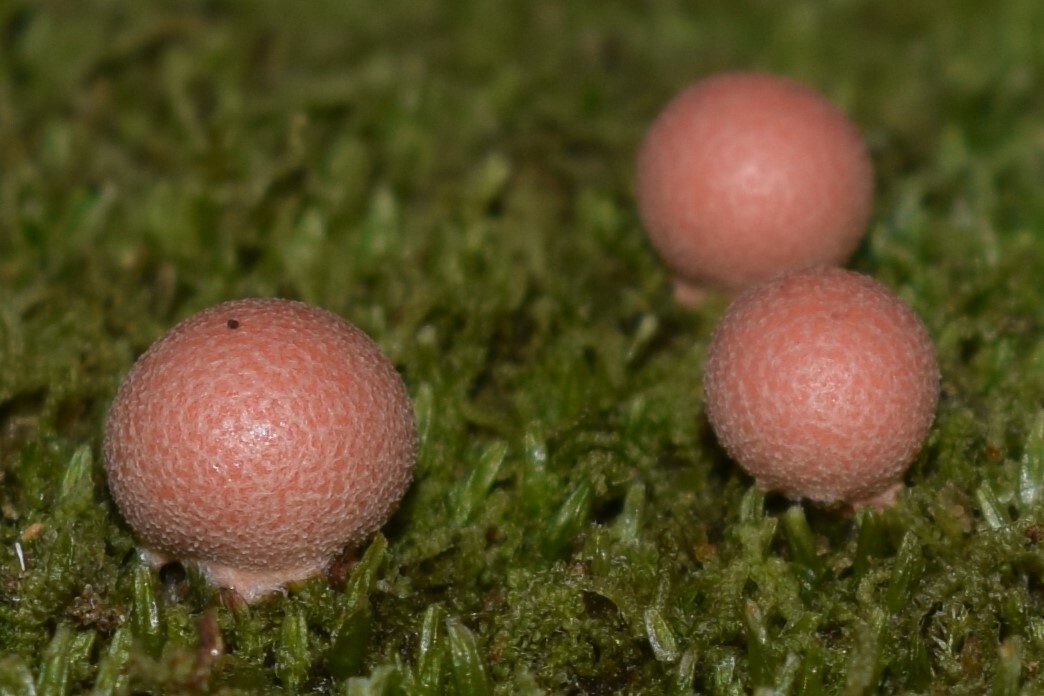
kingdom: Protozoa
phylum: Mycetozoa
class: Myxomycetes
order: Cribrariales
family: Tubiferaceae
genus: Lycogala
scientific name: Lycogala epidendrum
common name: Wolf's milk
